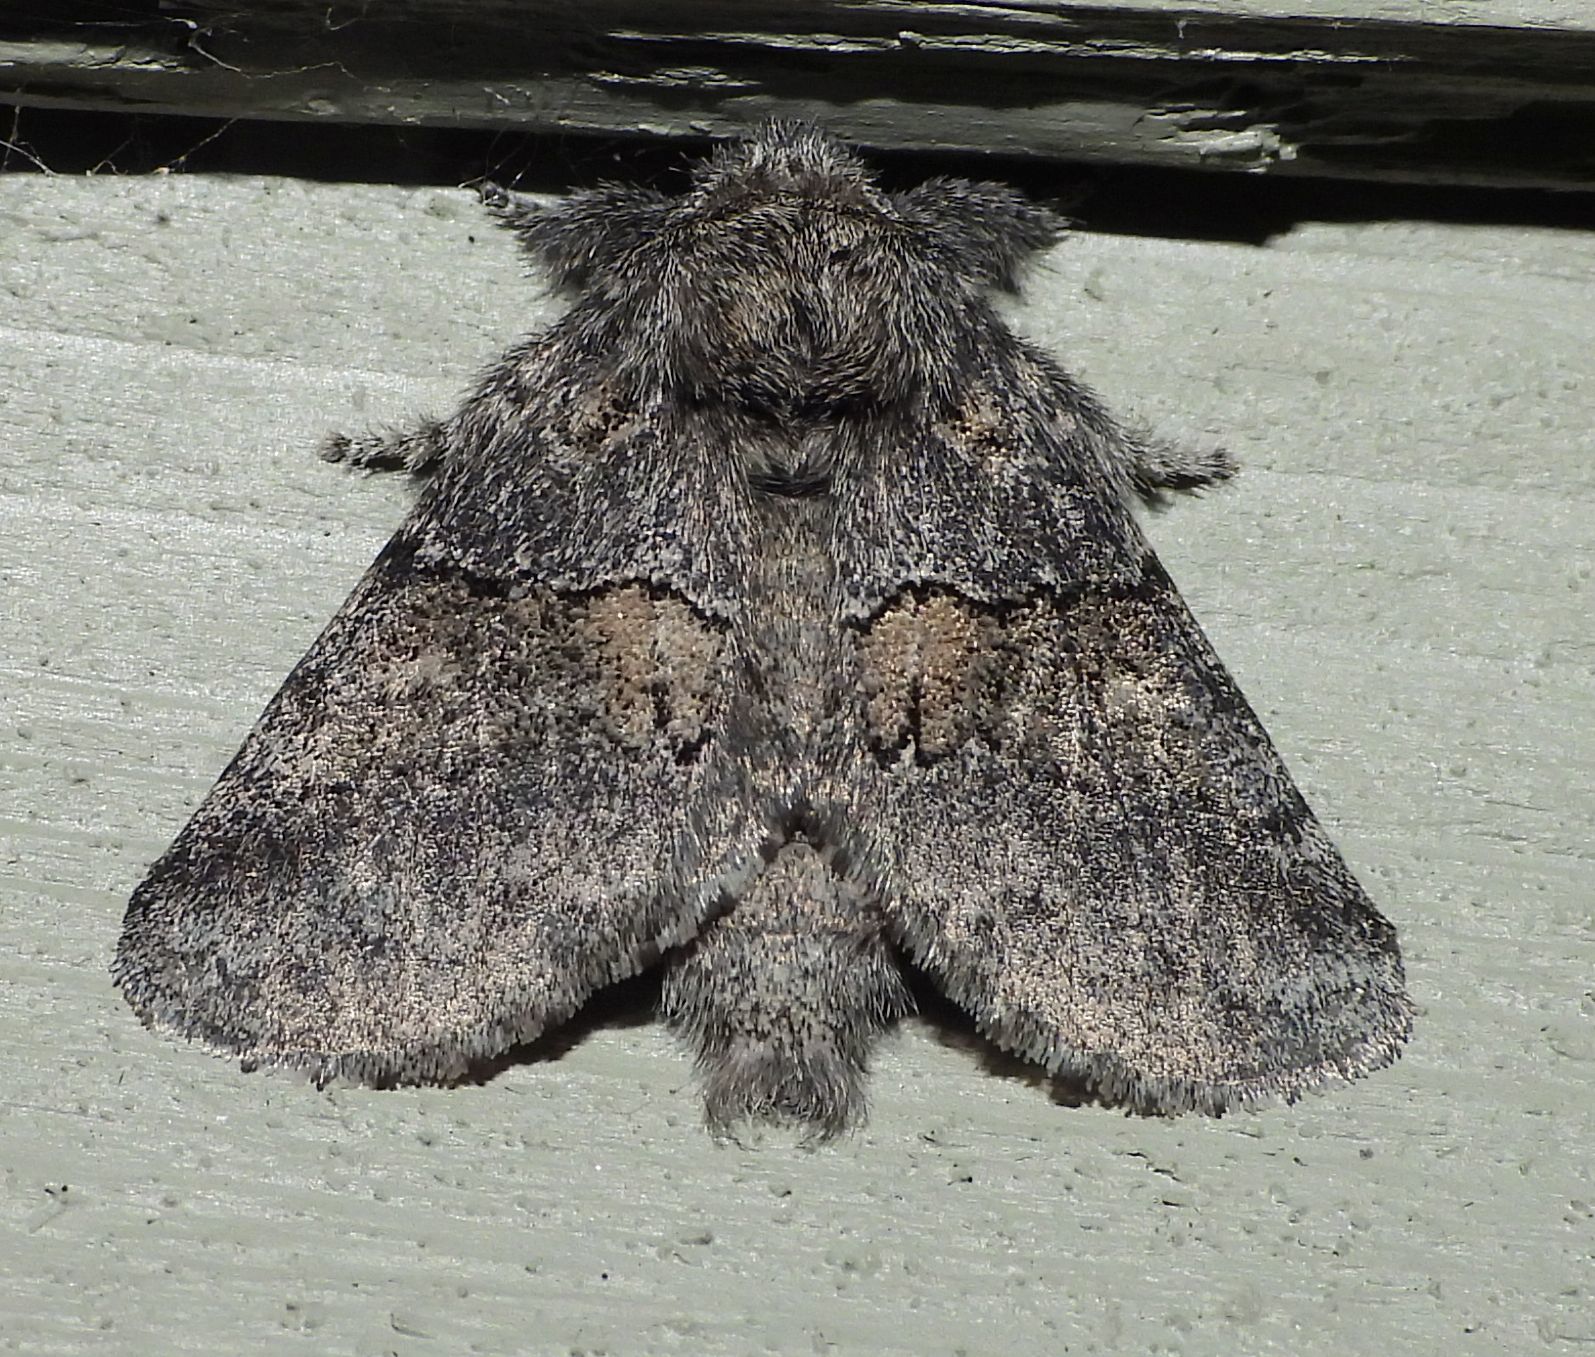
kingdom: Animalia
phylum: Arthropoda
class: Insecta
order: Lepidoptera
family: Notodontidae
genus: Gluphisia
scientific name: Gluphisia septentrionis
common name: Common gluphisia
